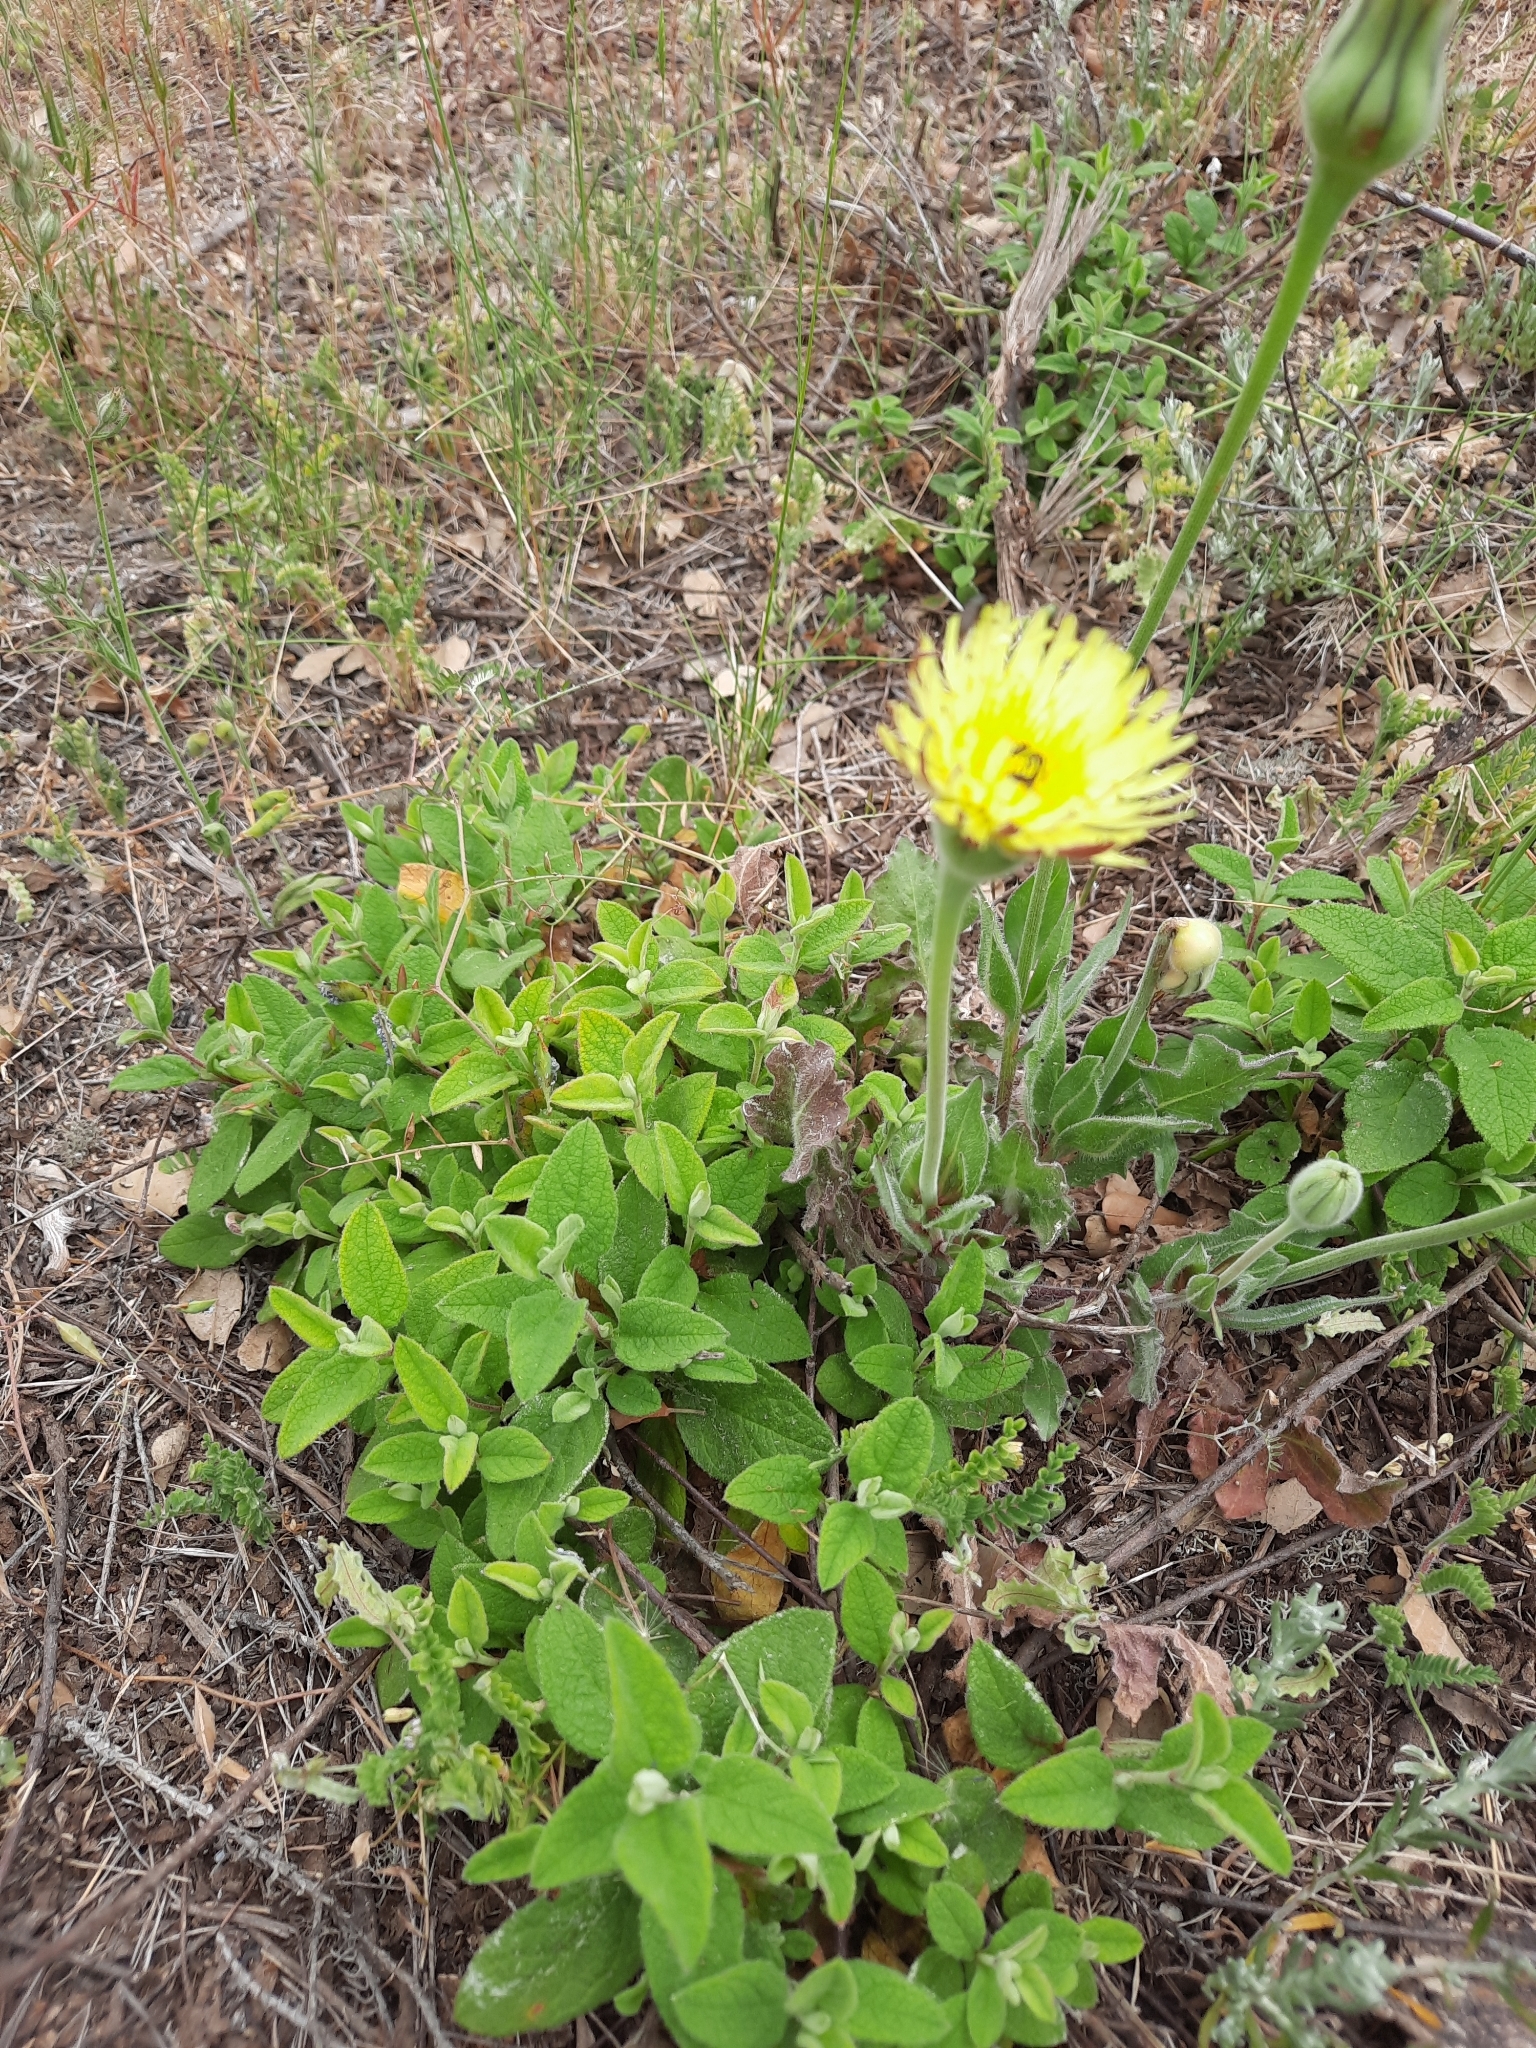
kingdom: Plantae
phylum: Tracheophyta
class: Magnoliopsida
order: Asterales
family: Asteraceae
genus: Urospermum
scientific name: Urospermum dalechampii
